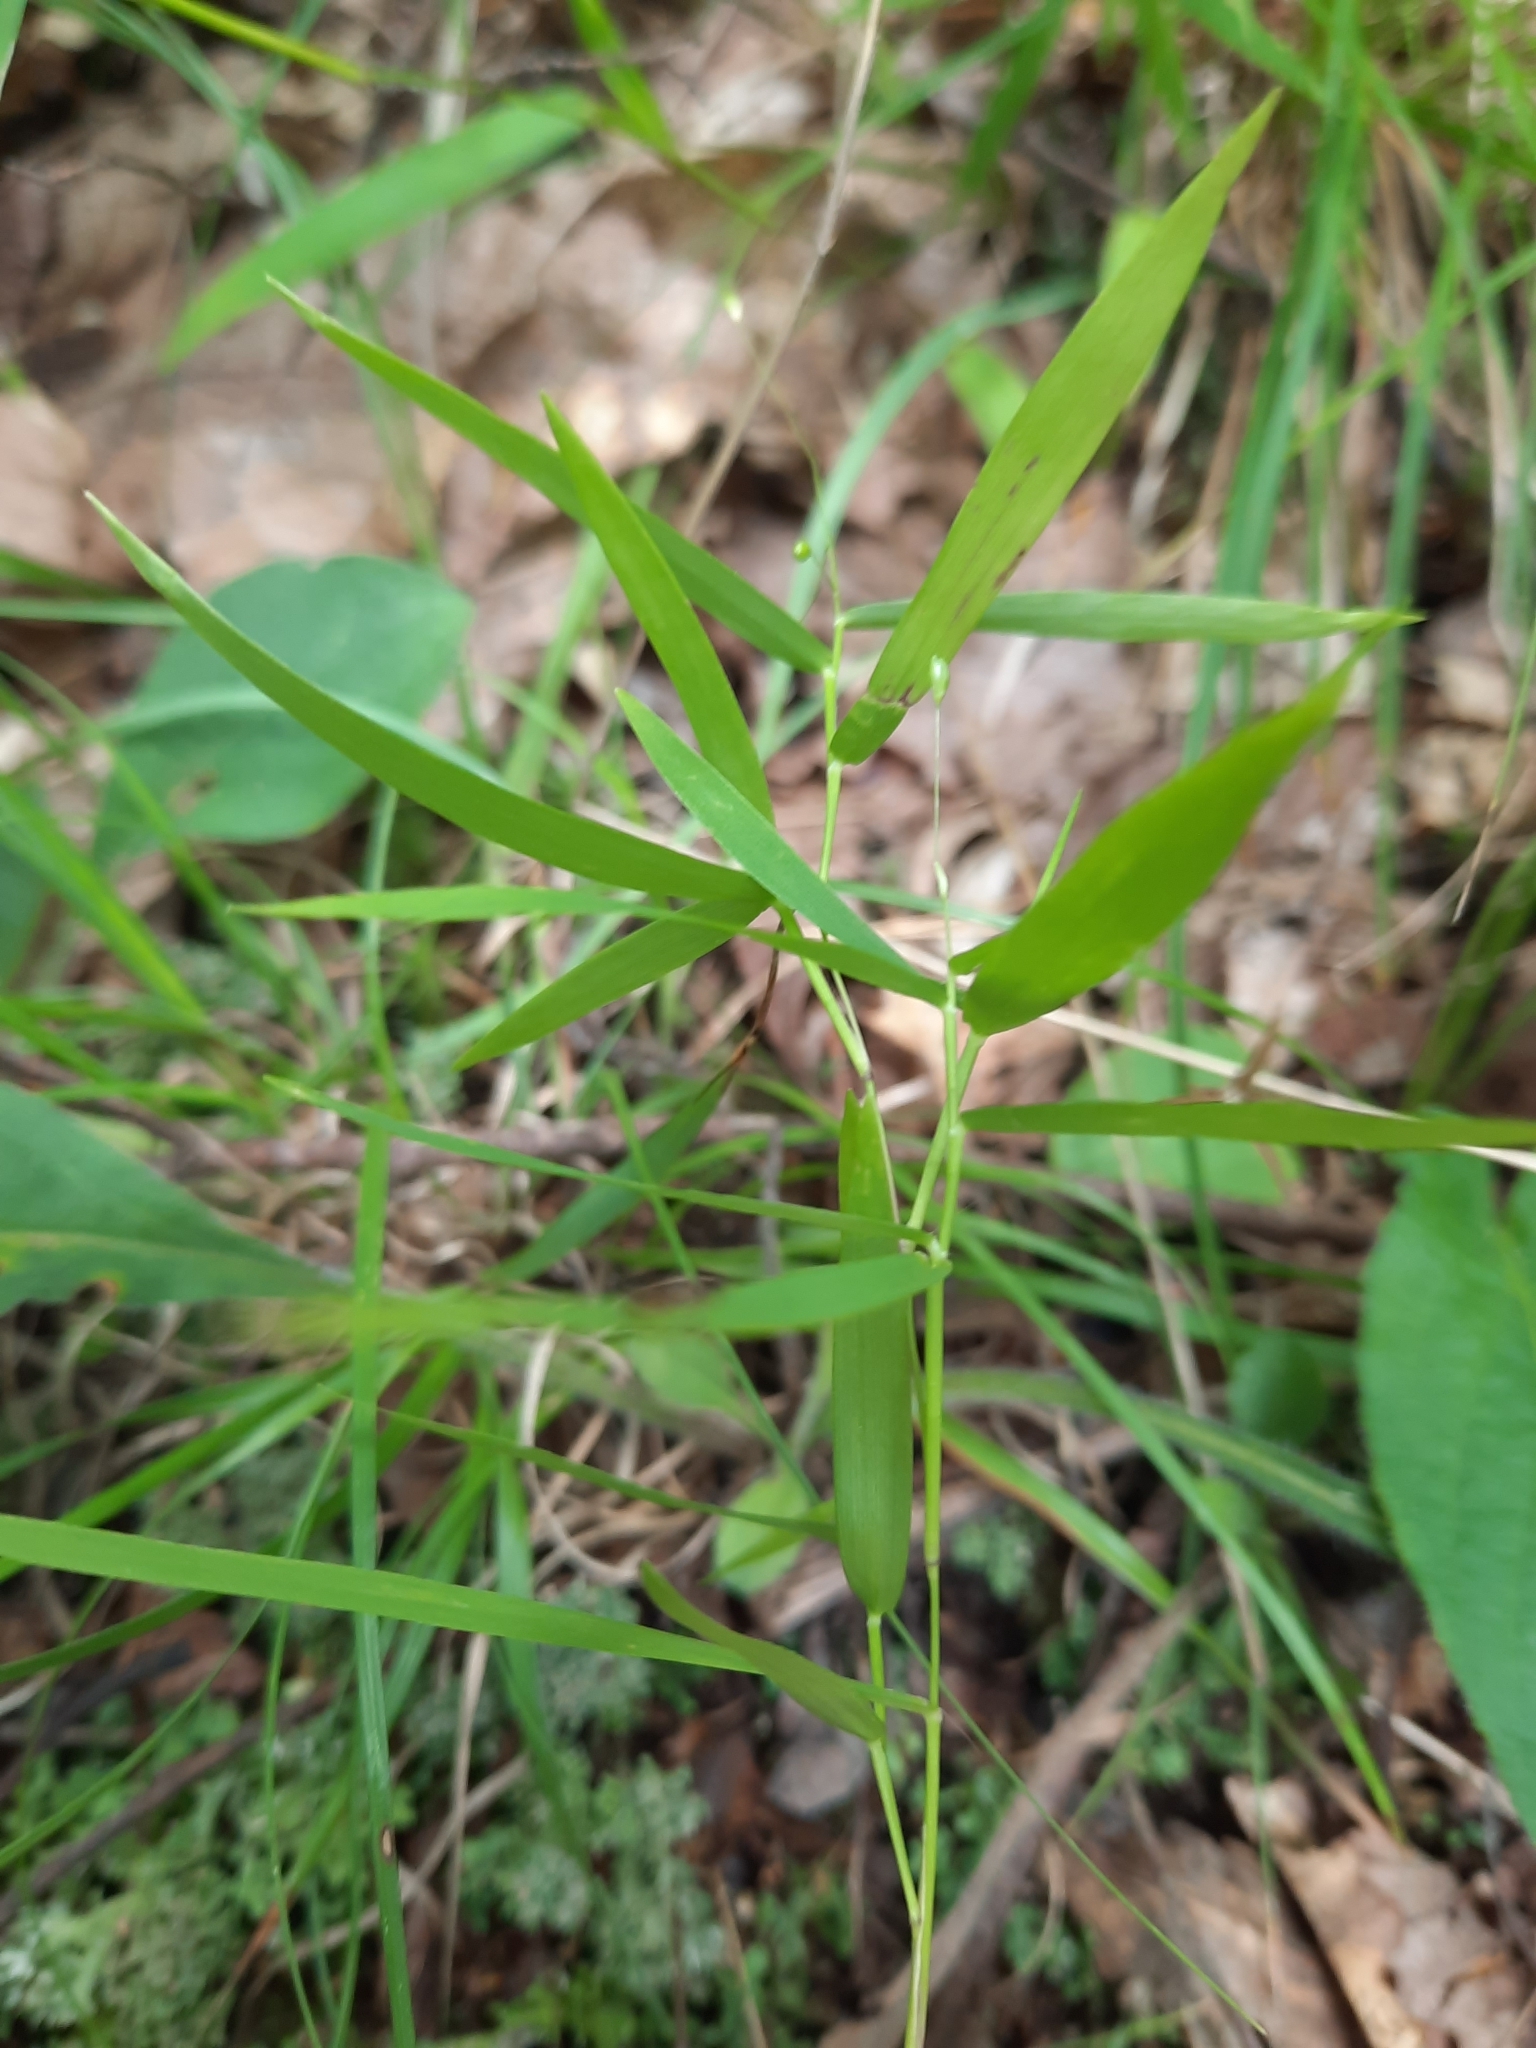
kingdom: Plantae
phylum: Tracheophyta
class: Liliopsida
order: Poales
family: Poaceae
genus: Dichanthelium
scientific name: Dichanthelium dichotomum
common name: Cypress panicgrass
